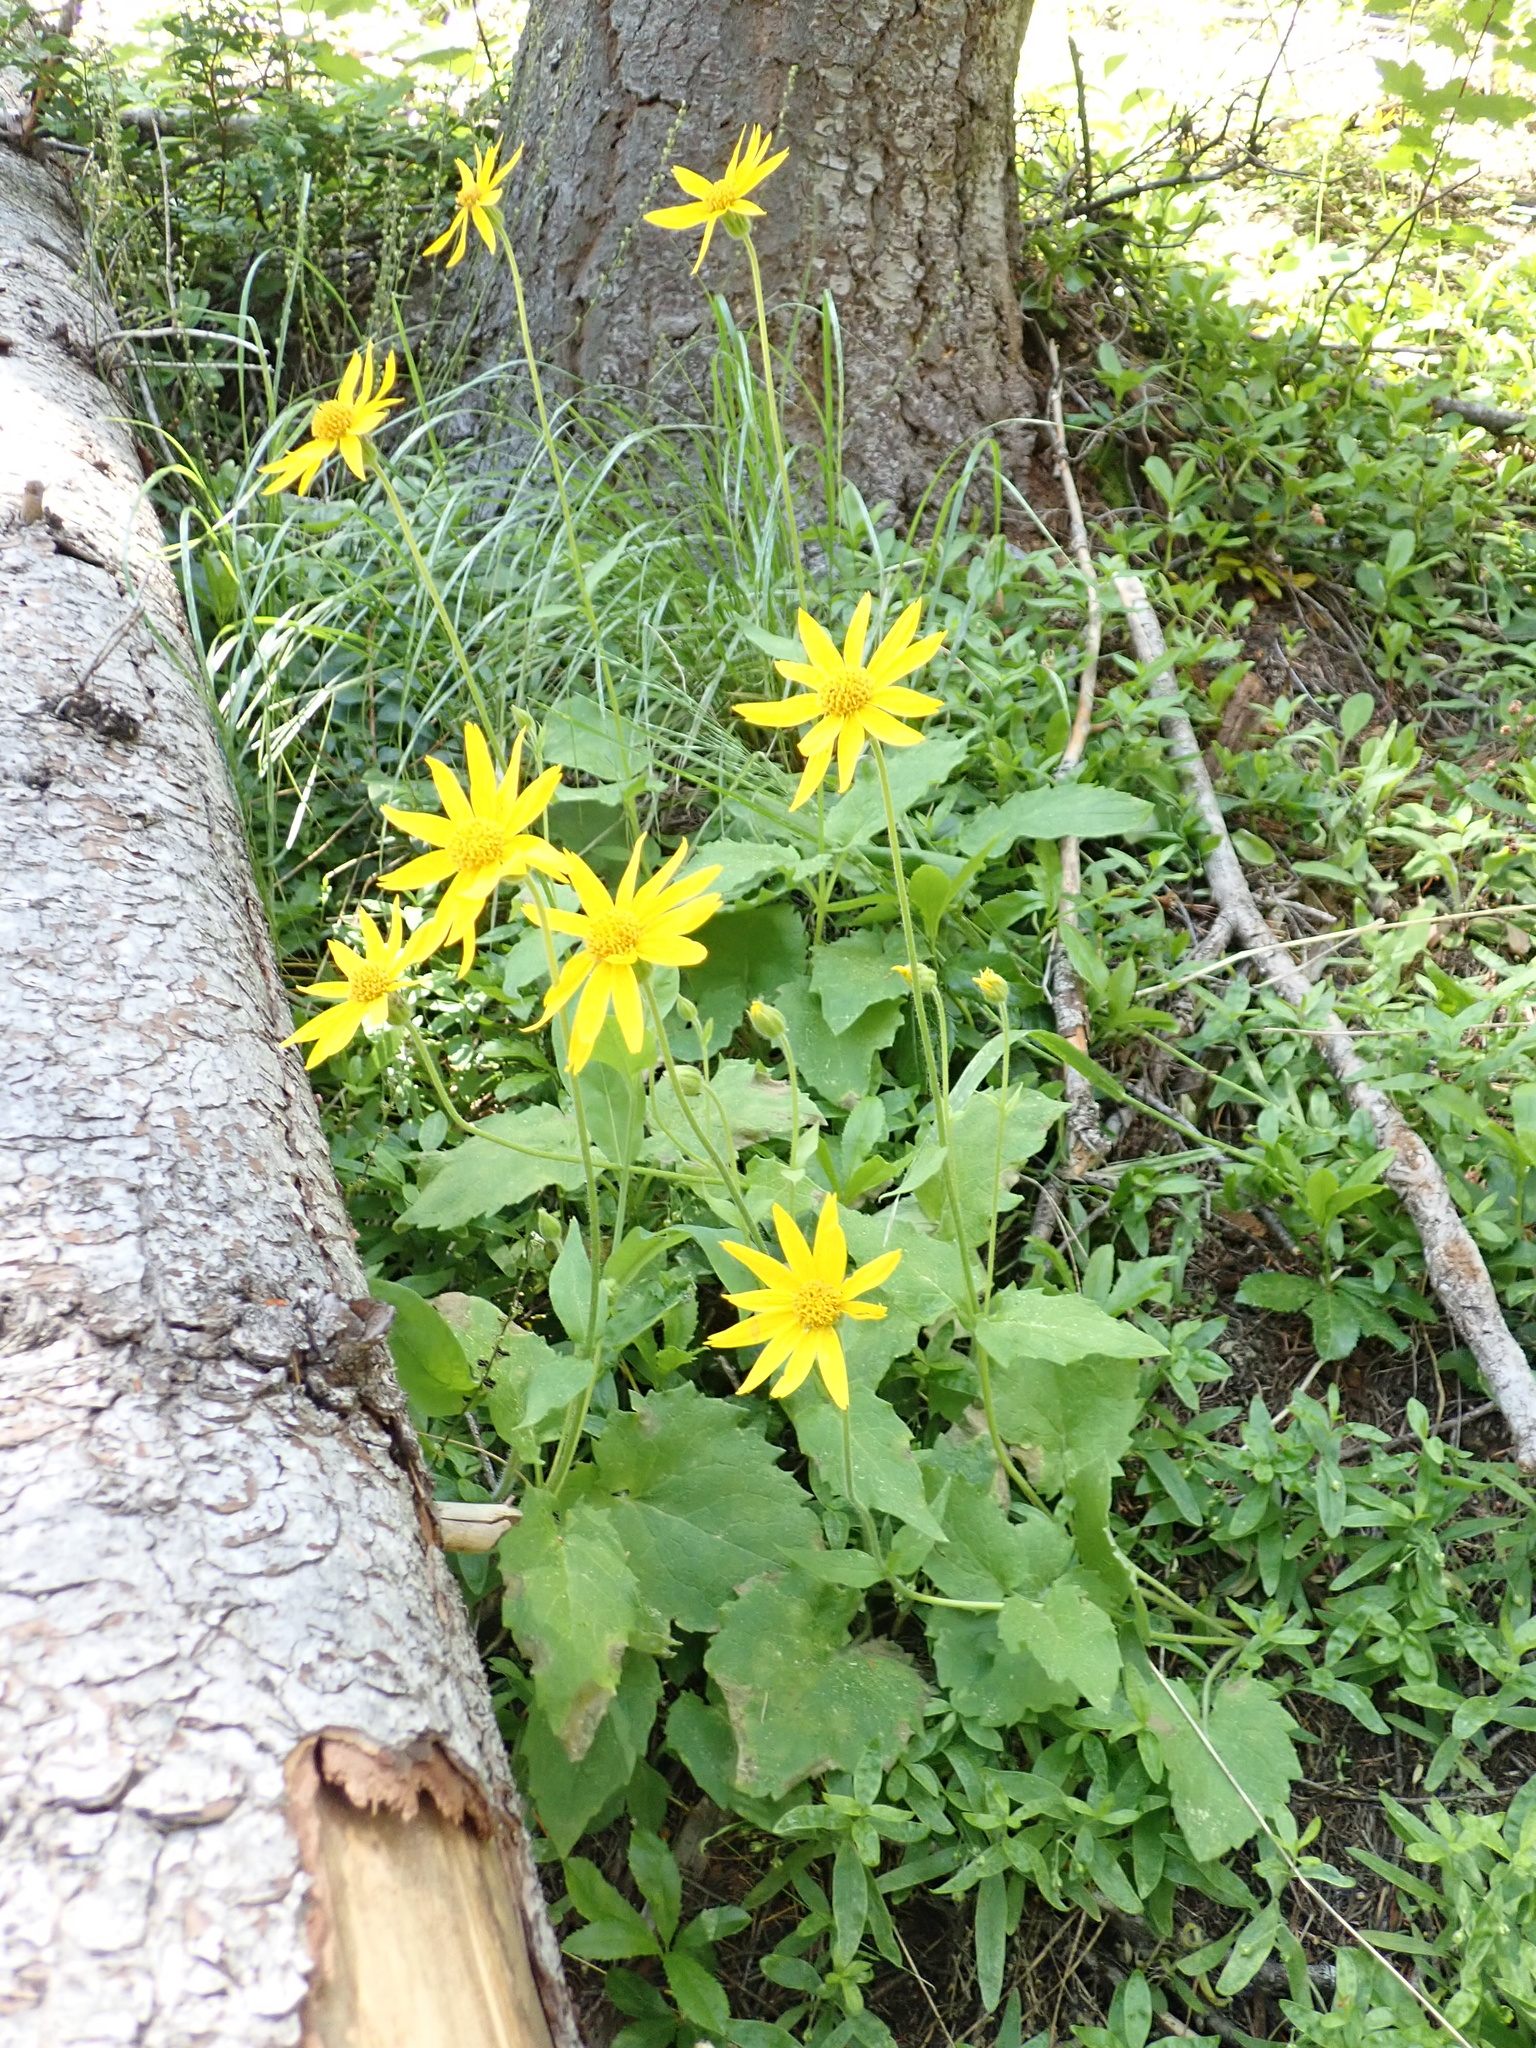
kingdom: Plantae
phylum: Tracheophyta
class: Magnoliopsida
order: Asterales
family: Asteraceae
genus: Arnica
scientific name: Arnica cordifolia
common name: Heart-leaf arnica
